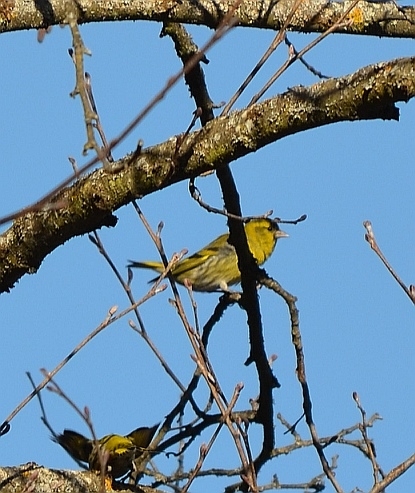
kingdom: Animalia
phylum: Chordata
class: Aves
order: Passeriformes
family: Fringillidae
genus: Spinus
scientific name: Spinus spinus
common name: Eurasian siskin
